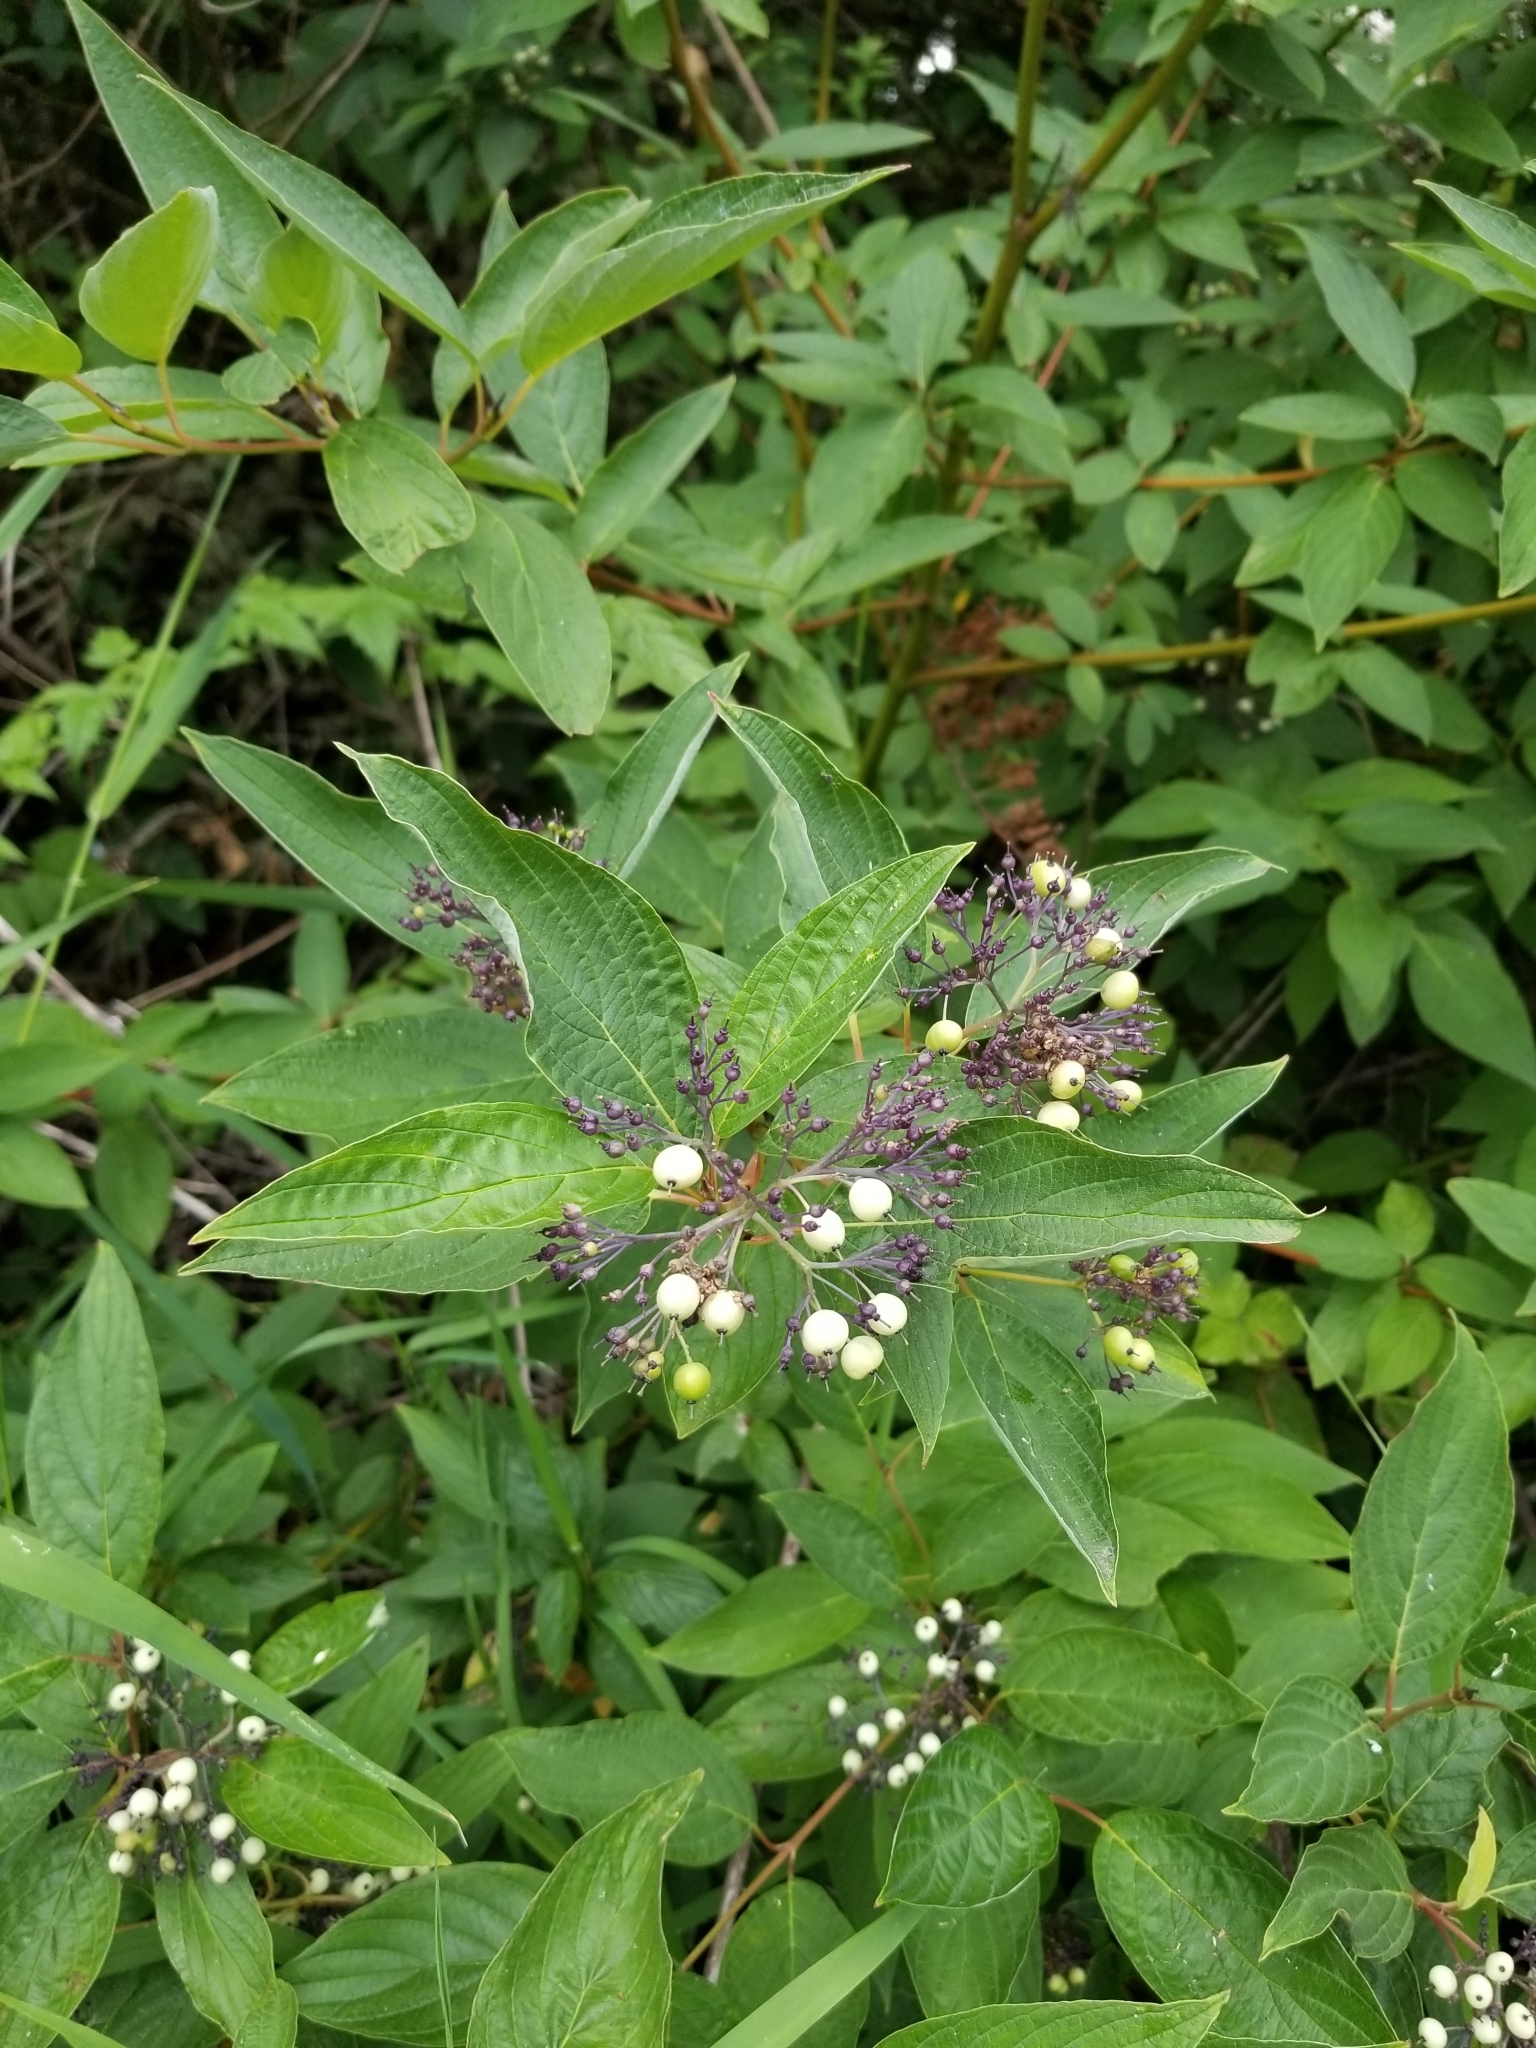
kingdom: Plantae
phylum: Tracheophyta
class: Magnoliopsida
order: Cornales
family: Cornaceae
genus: Cornus
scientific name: Cornus sericea
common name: Red-osier dogwood
